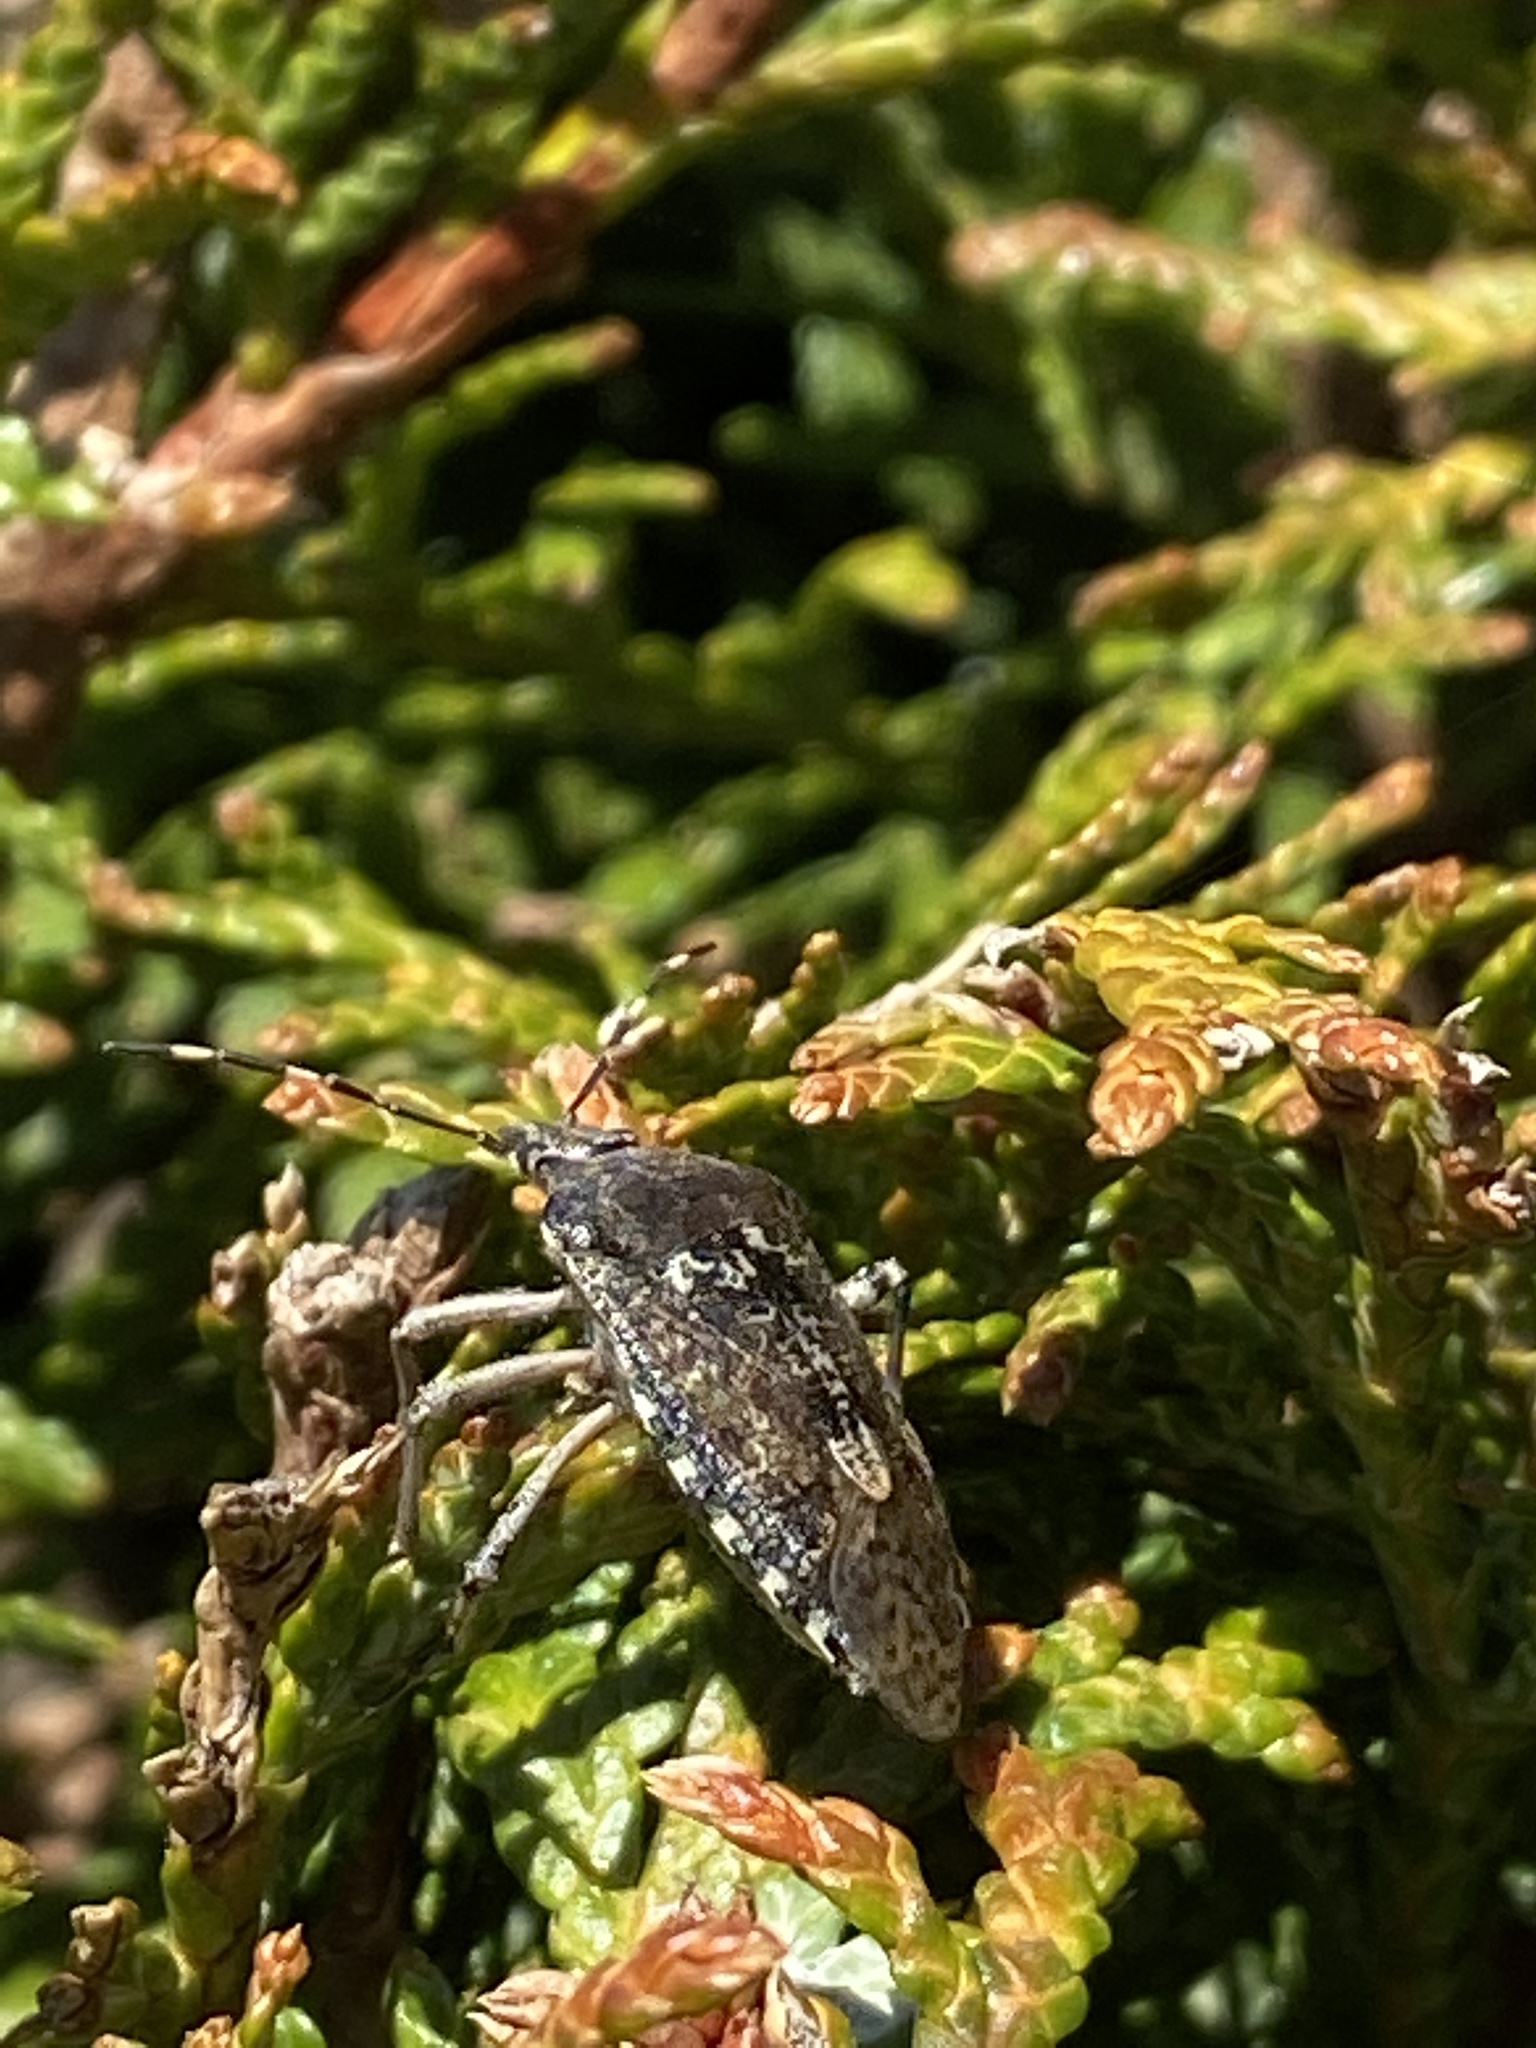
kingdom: Animalia
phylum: Arthropoda
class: Insecta
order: Hemiptera
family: Pentatomidae
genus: Rhaphigaster
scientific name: Rhaphigaster nebulosa
